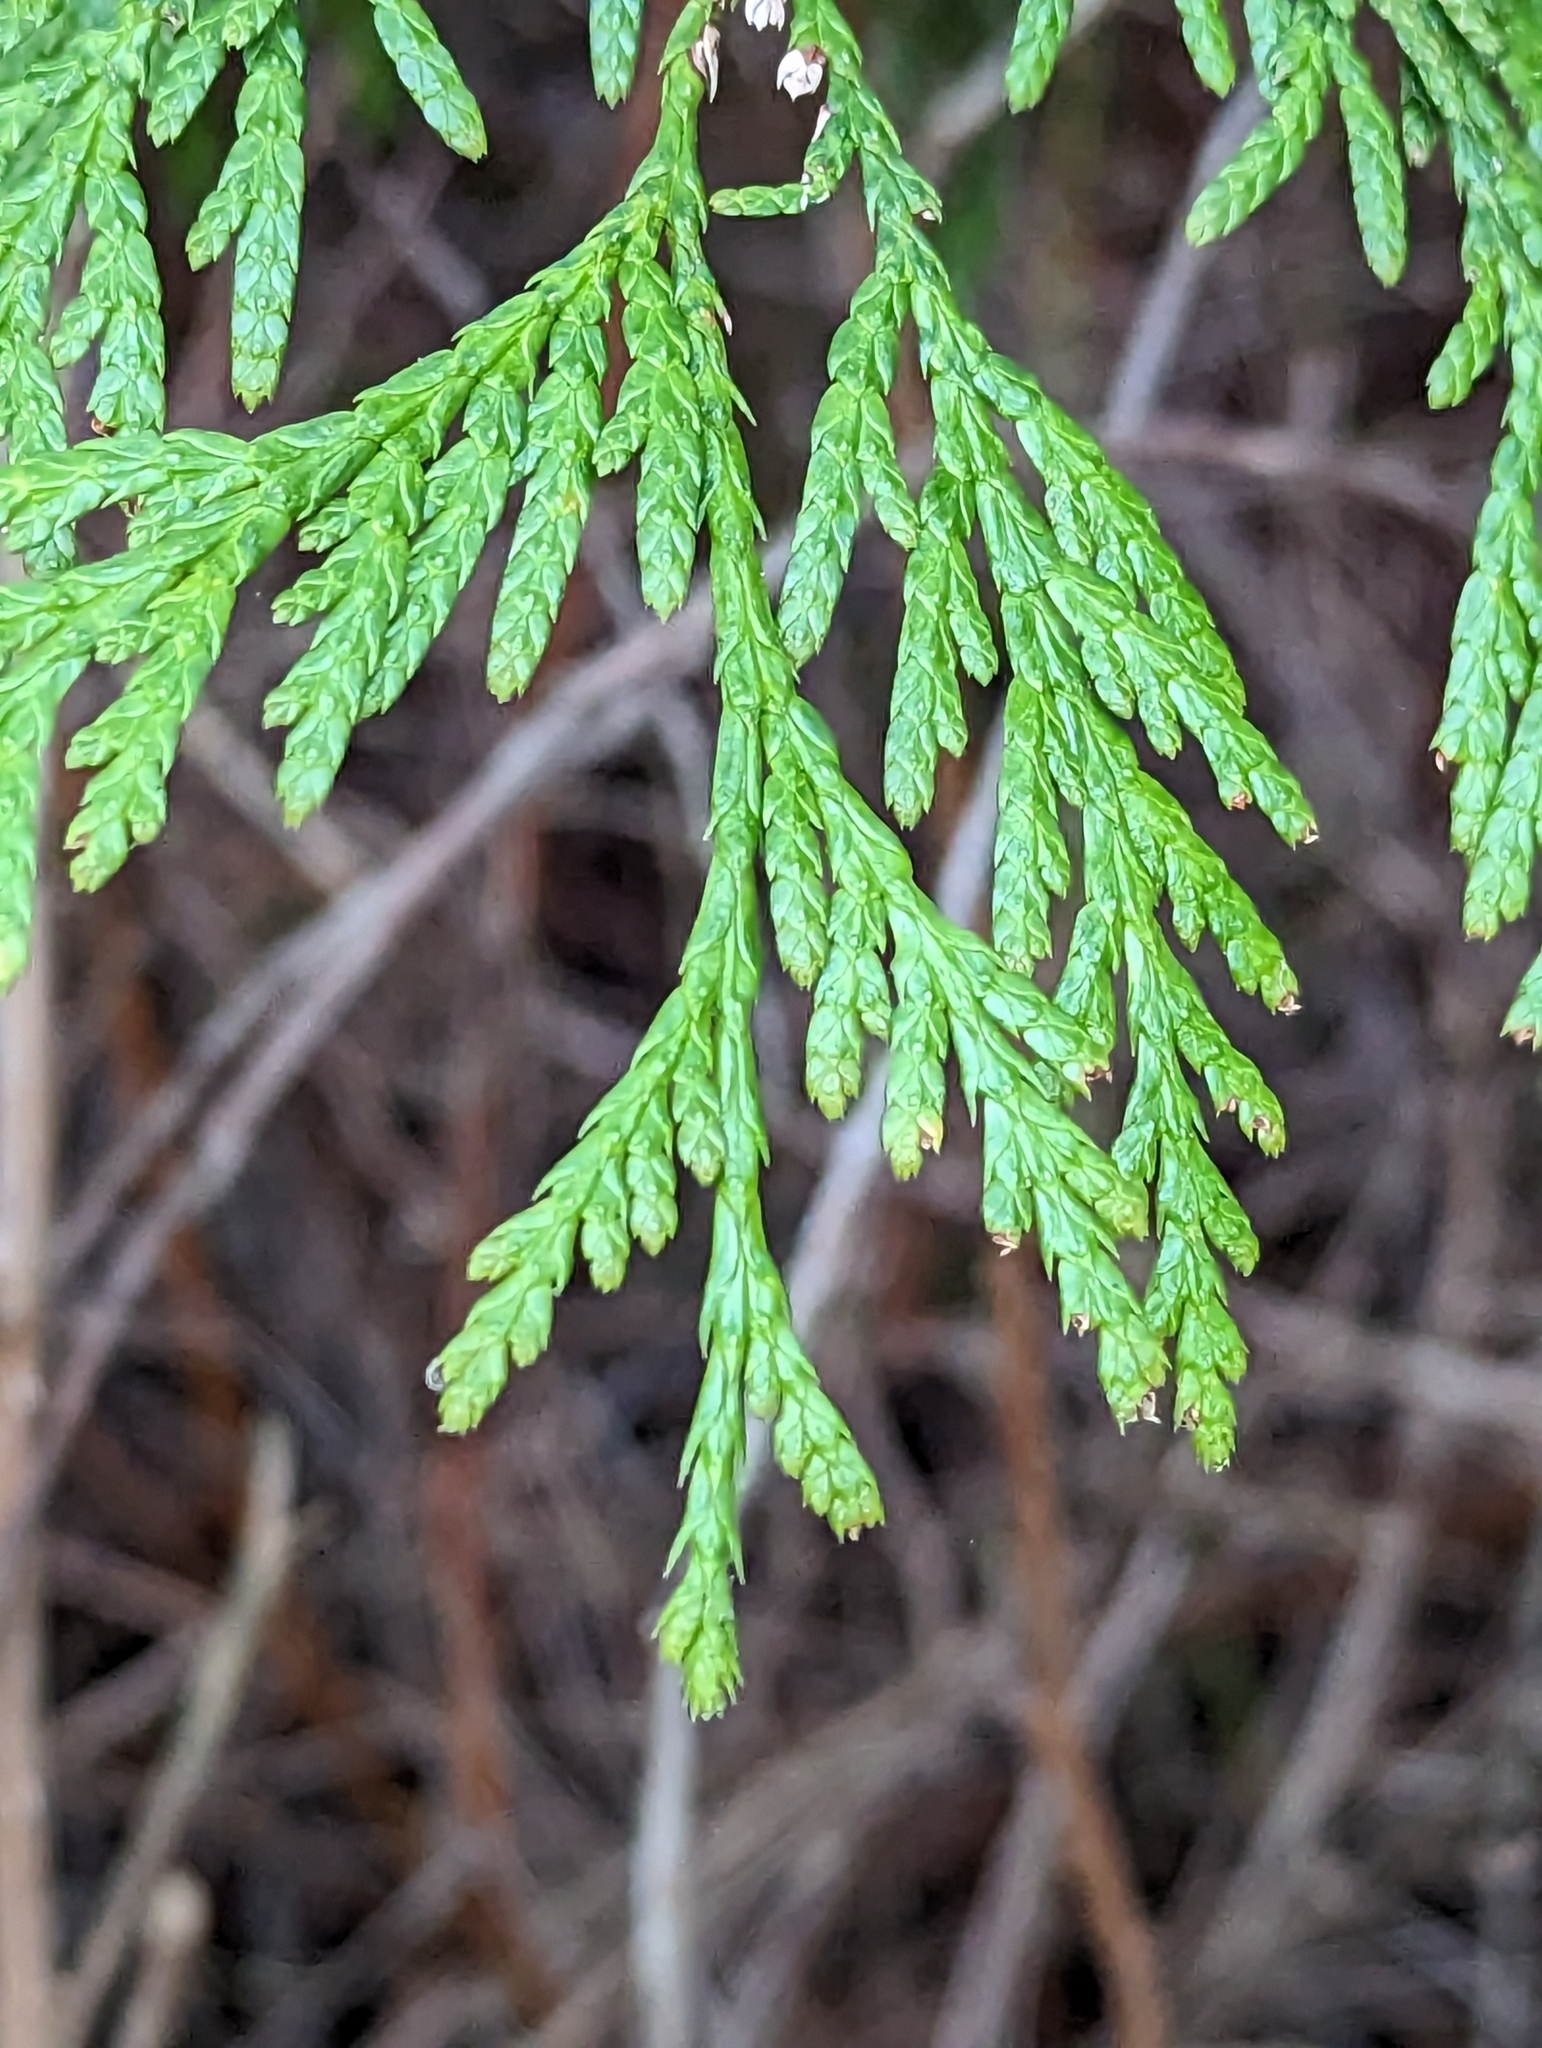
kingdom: Plantae
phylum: Tracheophyta
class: Pinopsida
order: Pinales
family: Cupressaceae
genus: Thuja
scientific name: Thuja plicata
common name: Western red-cedar
